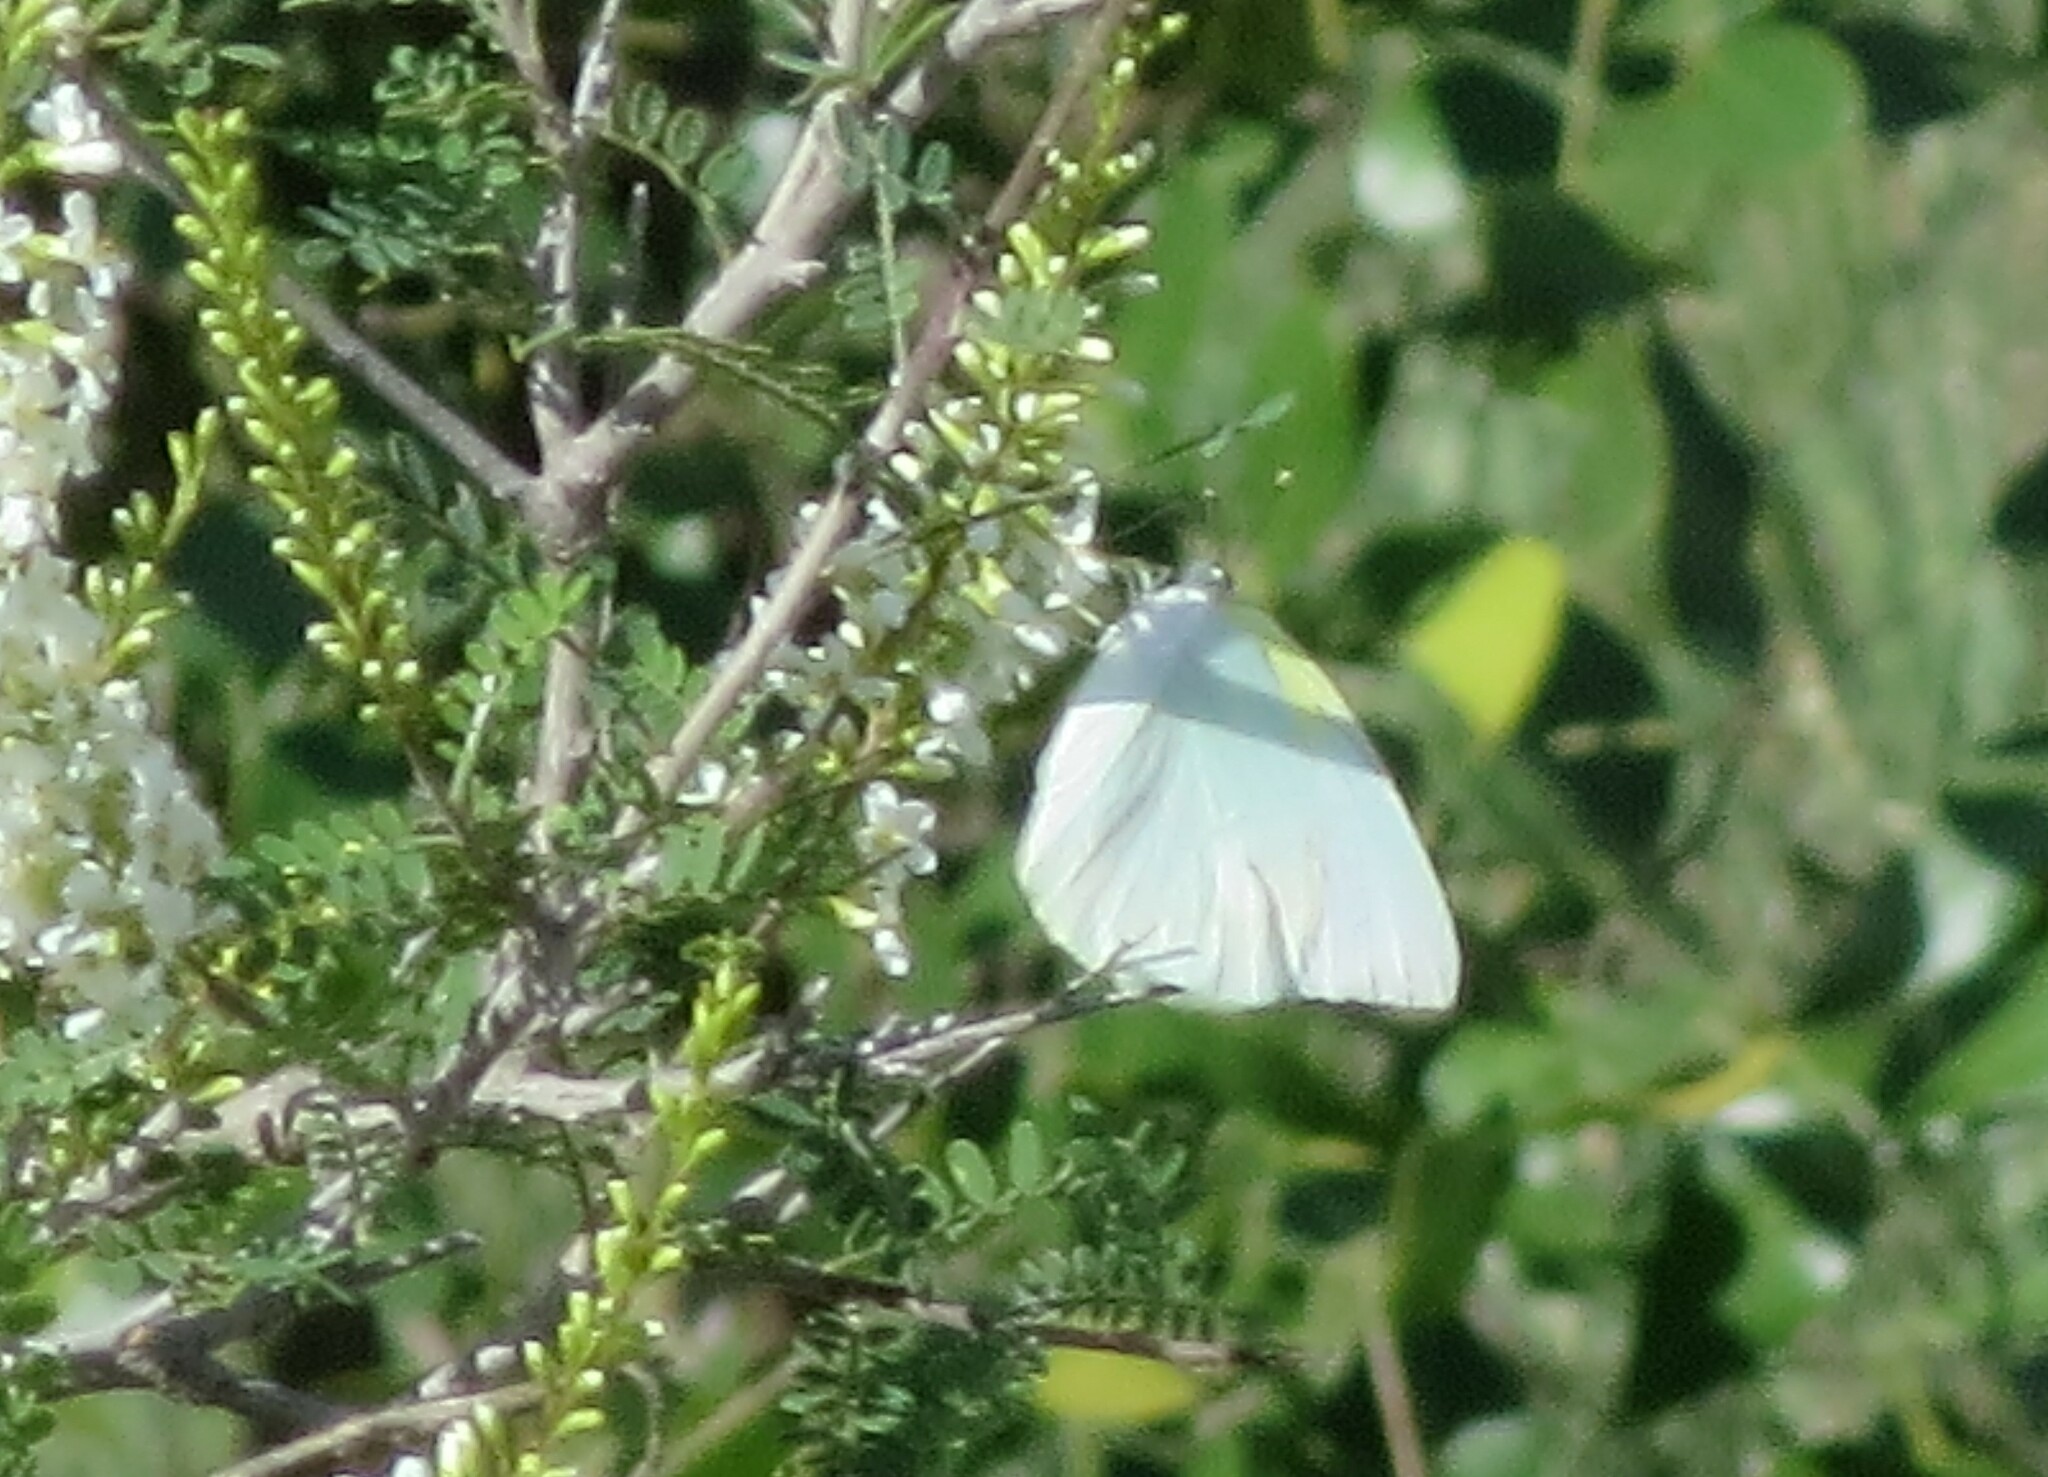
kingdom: Animalia
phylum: Arthropoda
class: Insecta
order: Lepidoptera
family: Pieridae
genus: Kricogonia
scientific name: Kricogonia lyside
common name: Guayacan sulphur,
